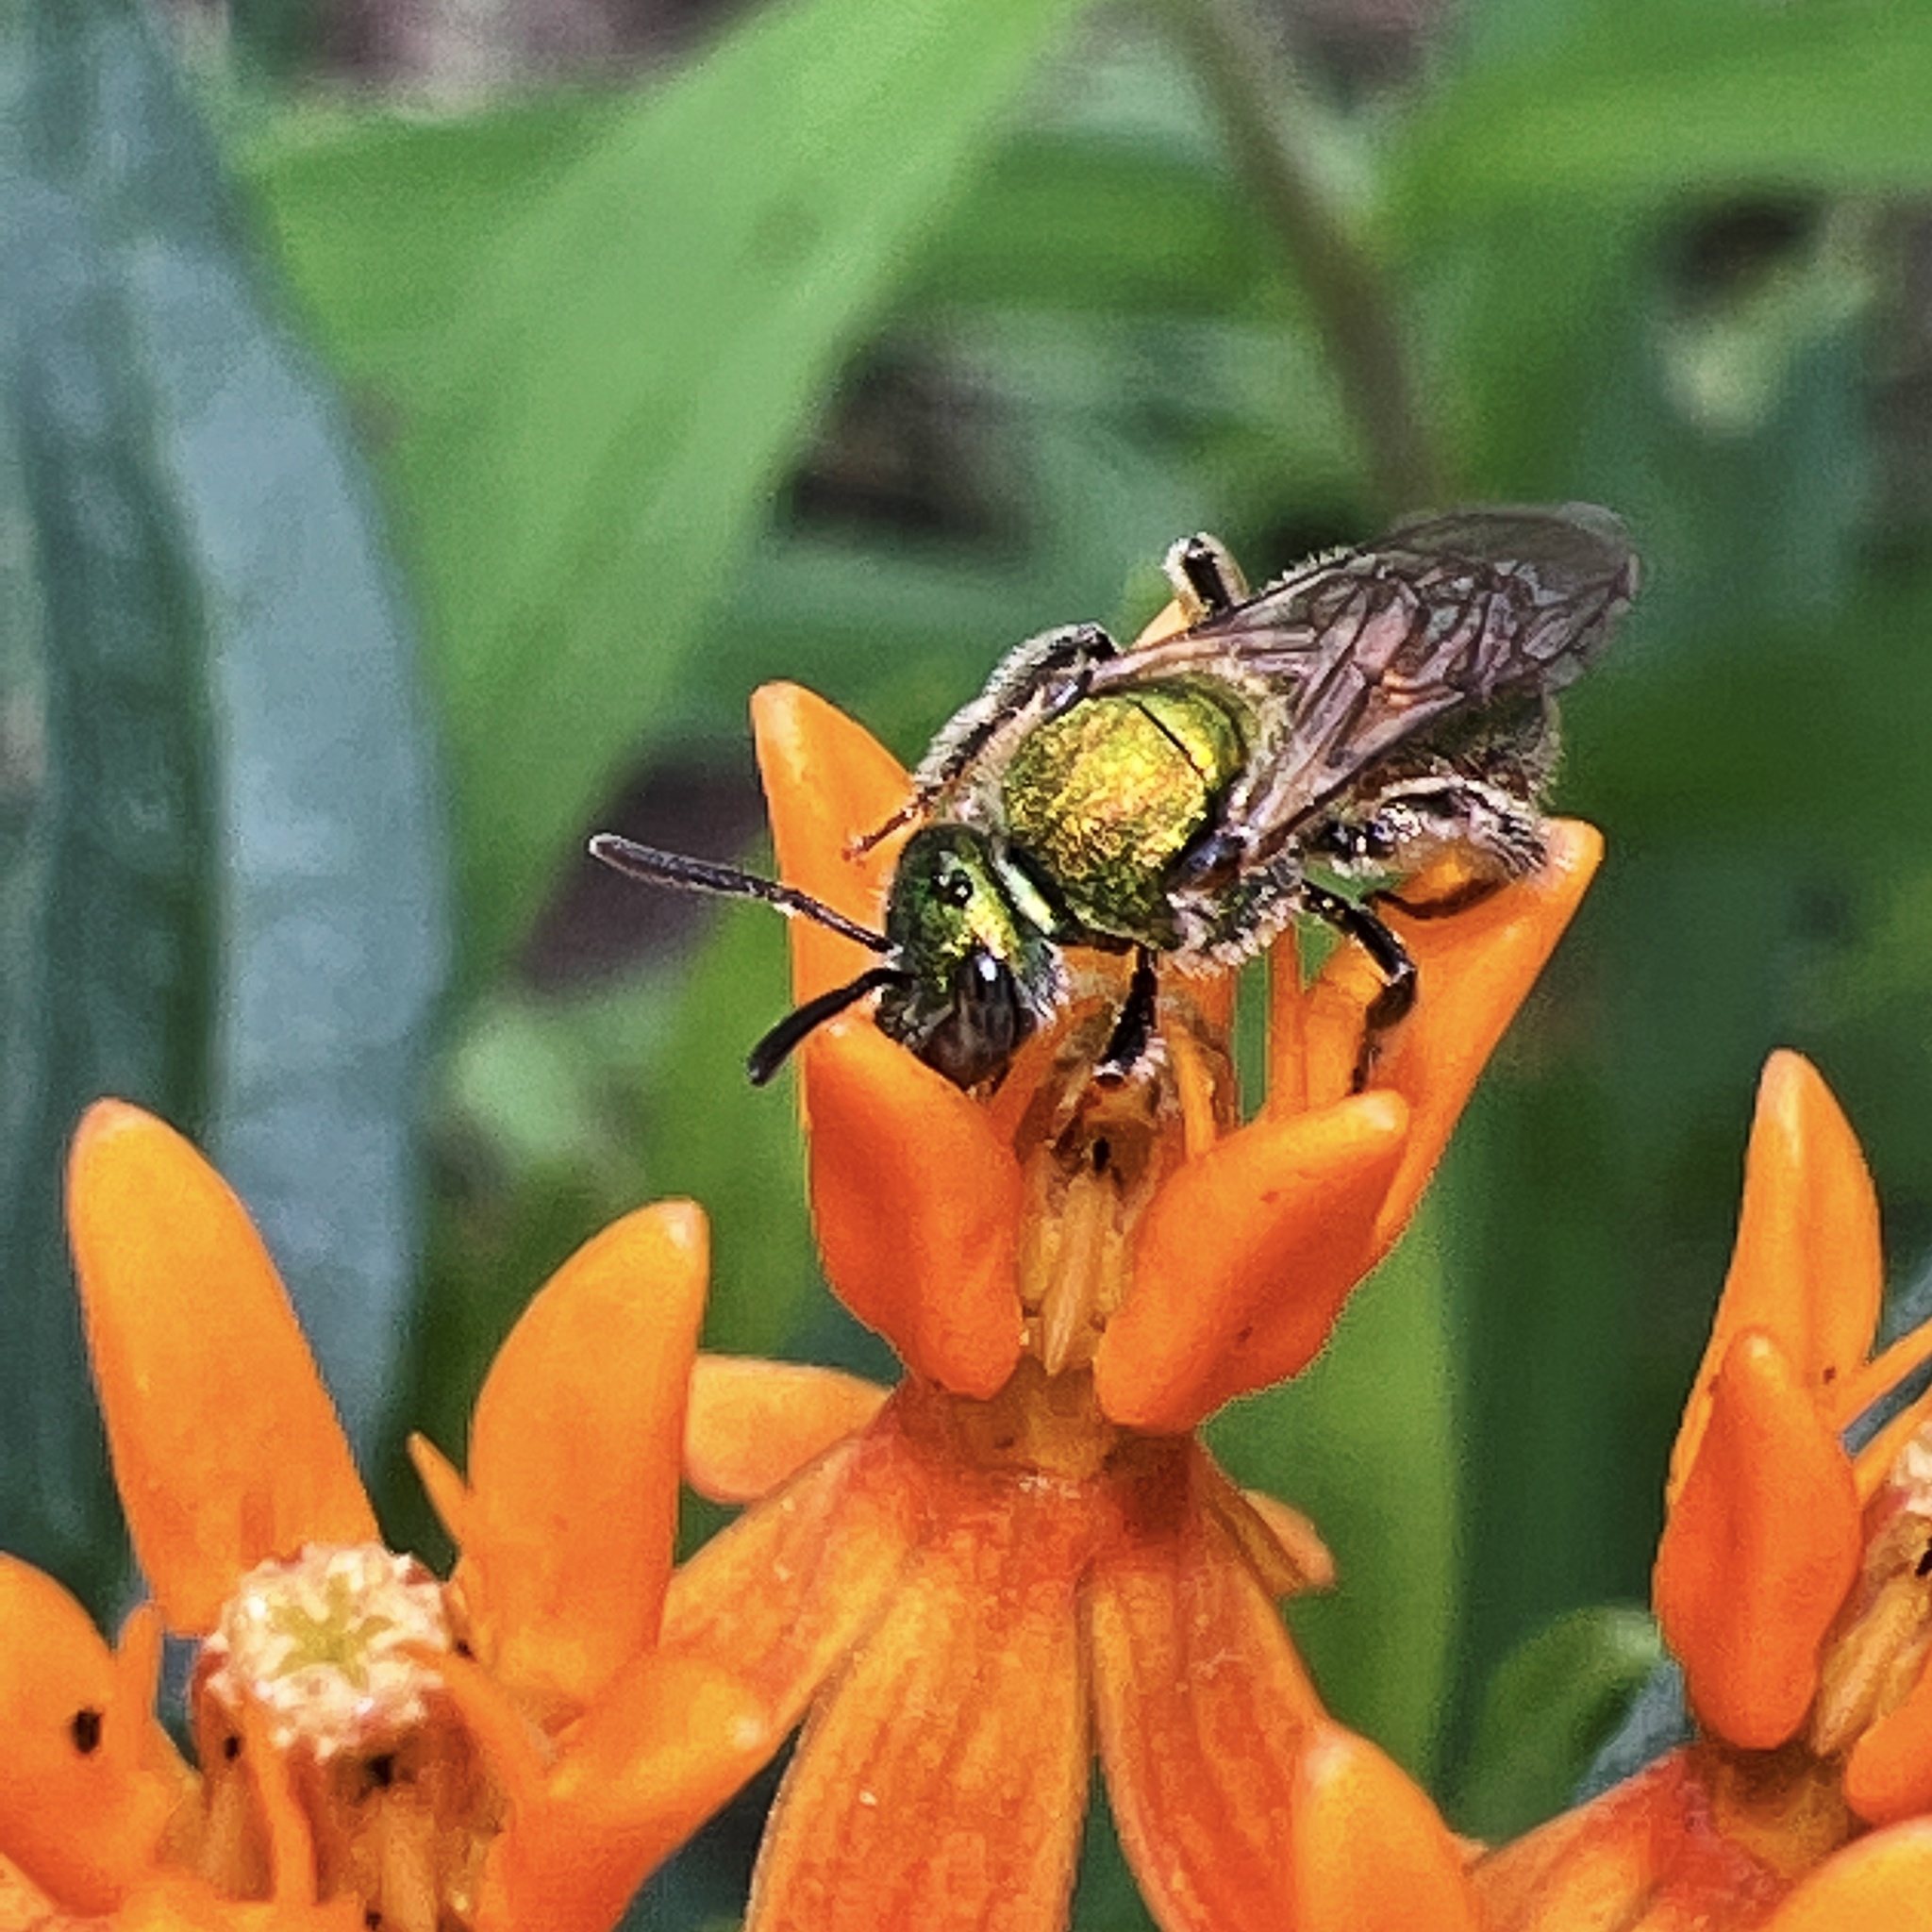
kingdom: Animalia
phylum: Arthropoda
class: Insecta
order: Hymenoptera
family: Halictidae
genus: Augochlorella
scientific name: Augochlorella aurata
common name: Golden sweat bee
